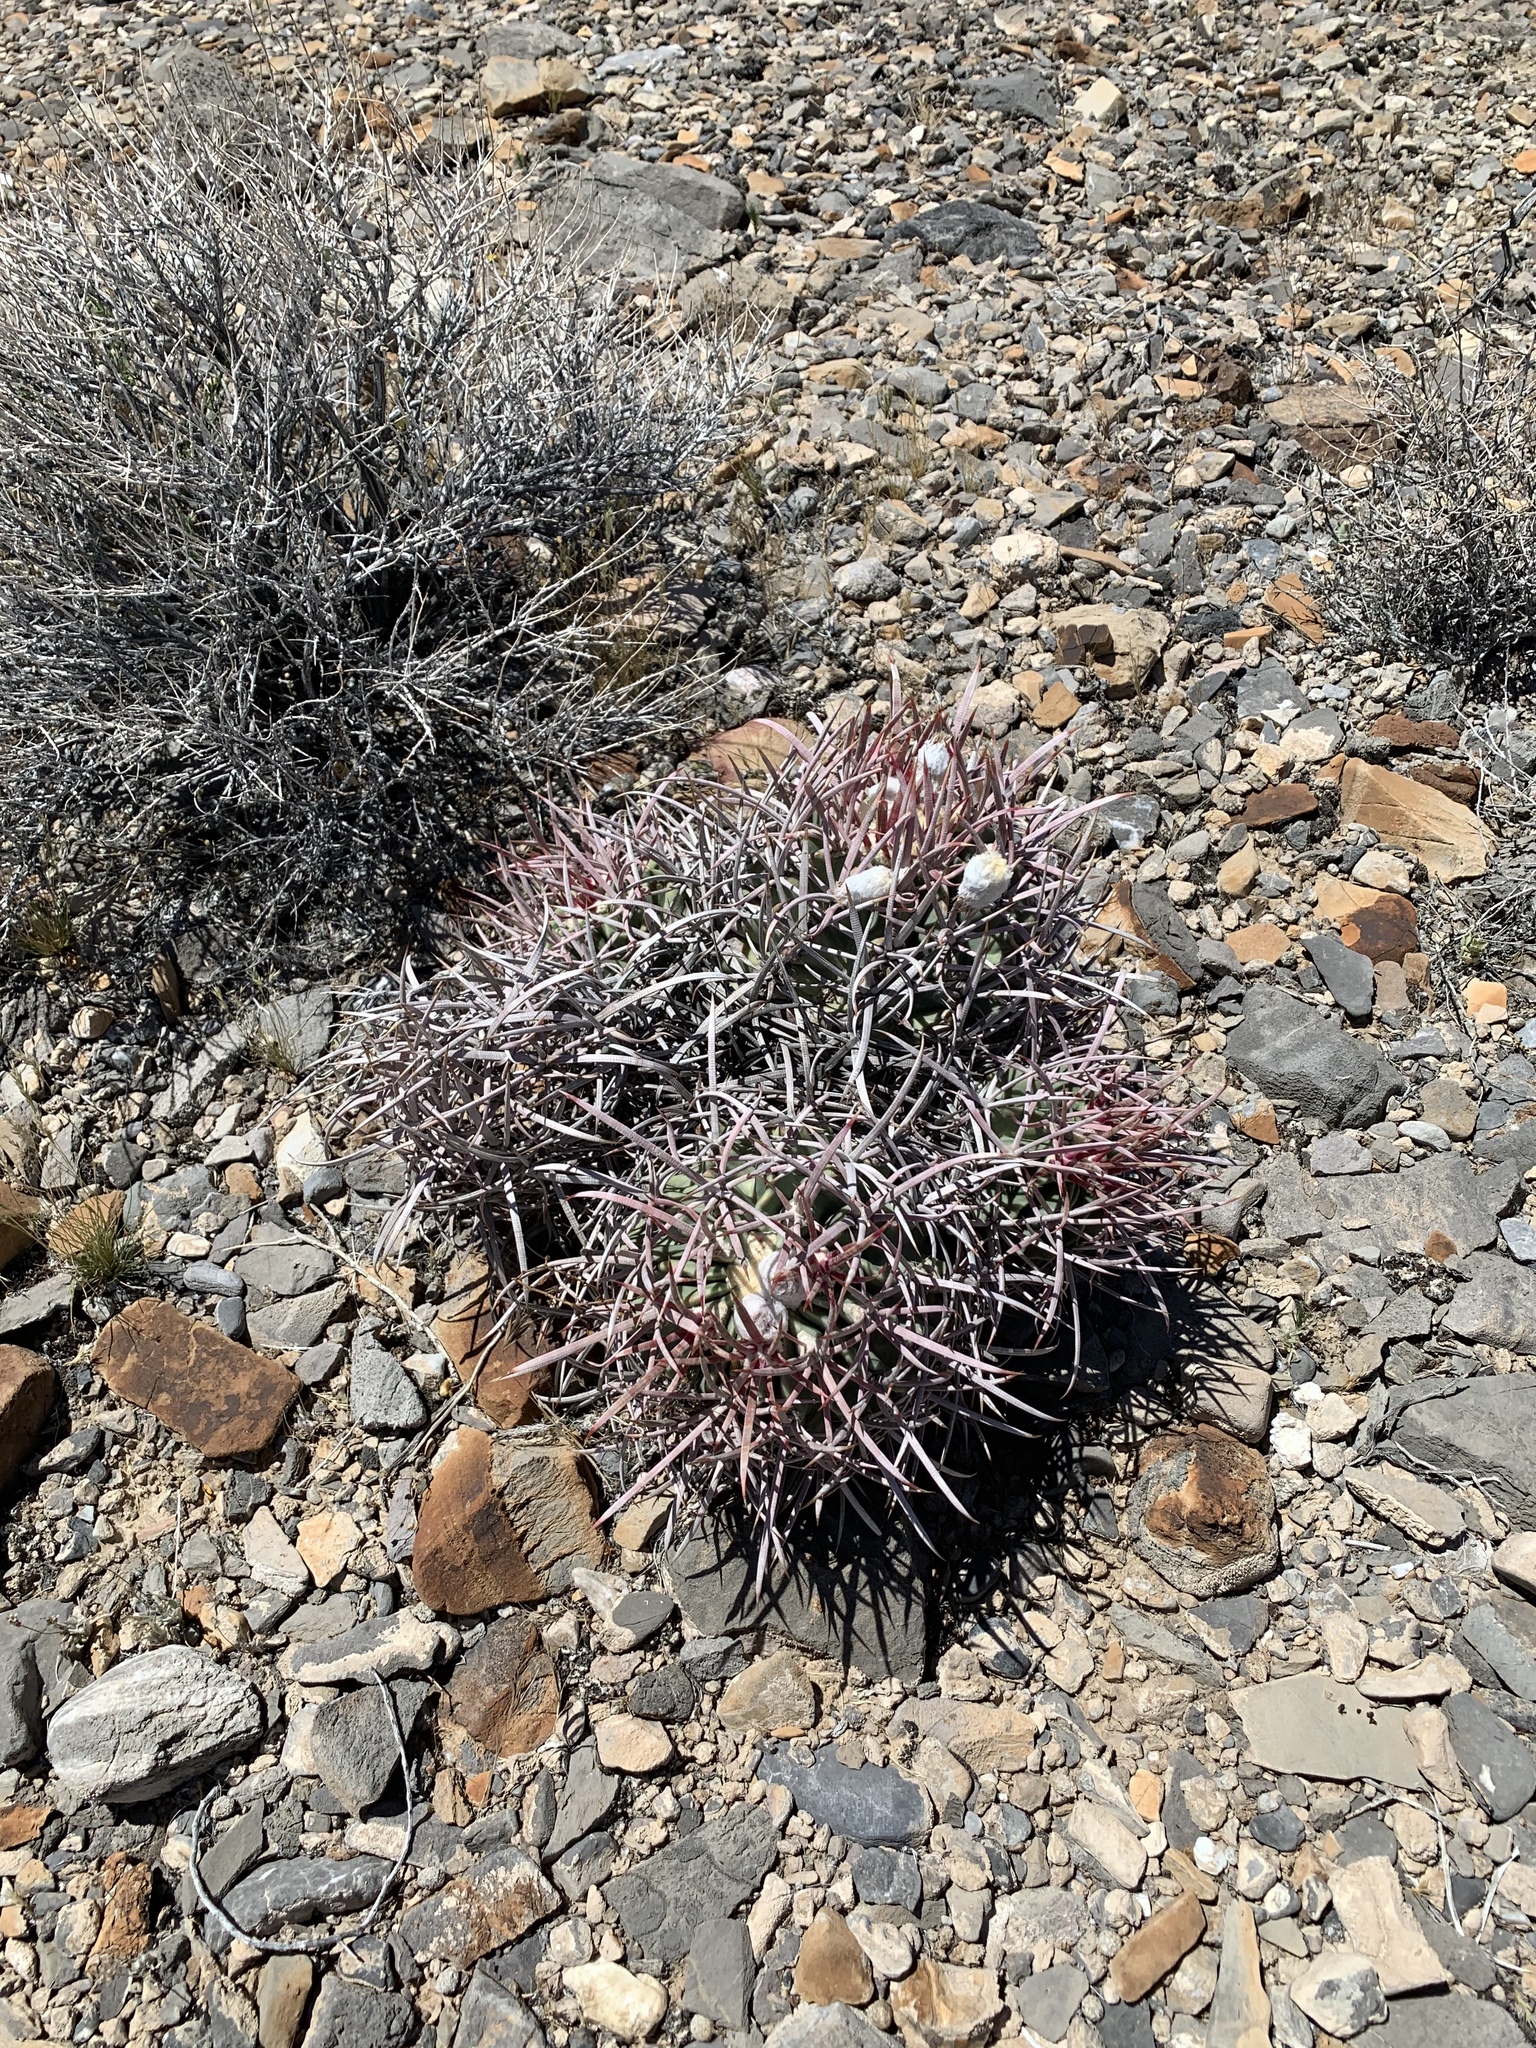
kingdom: Plantae
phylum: Tracheophyta
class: Magnoliopsida
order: Caryophyllales
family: Cactaceae
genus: Echinocactus
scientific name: Echinocactus polycephalus
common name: Cottontop cactus
